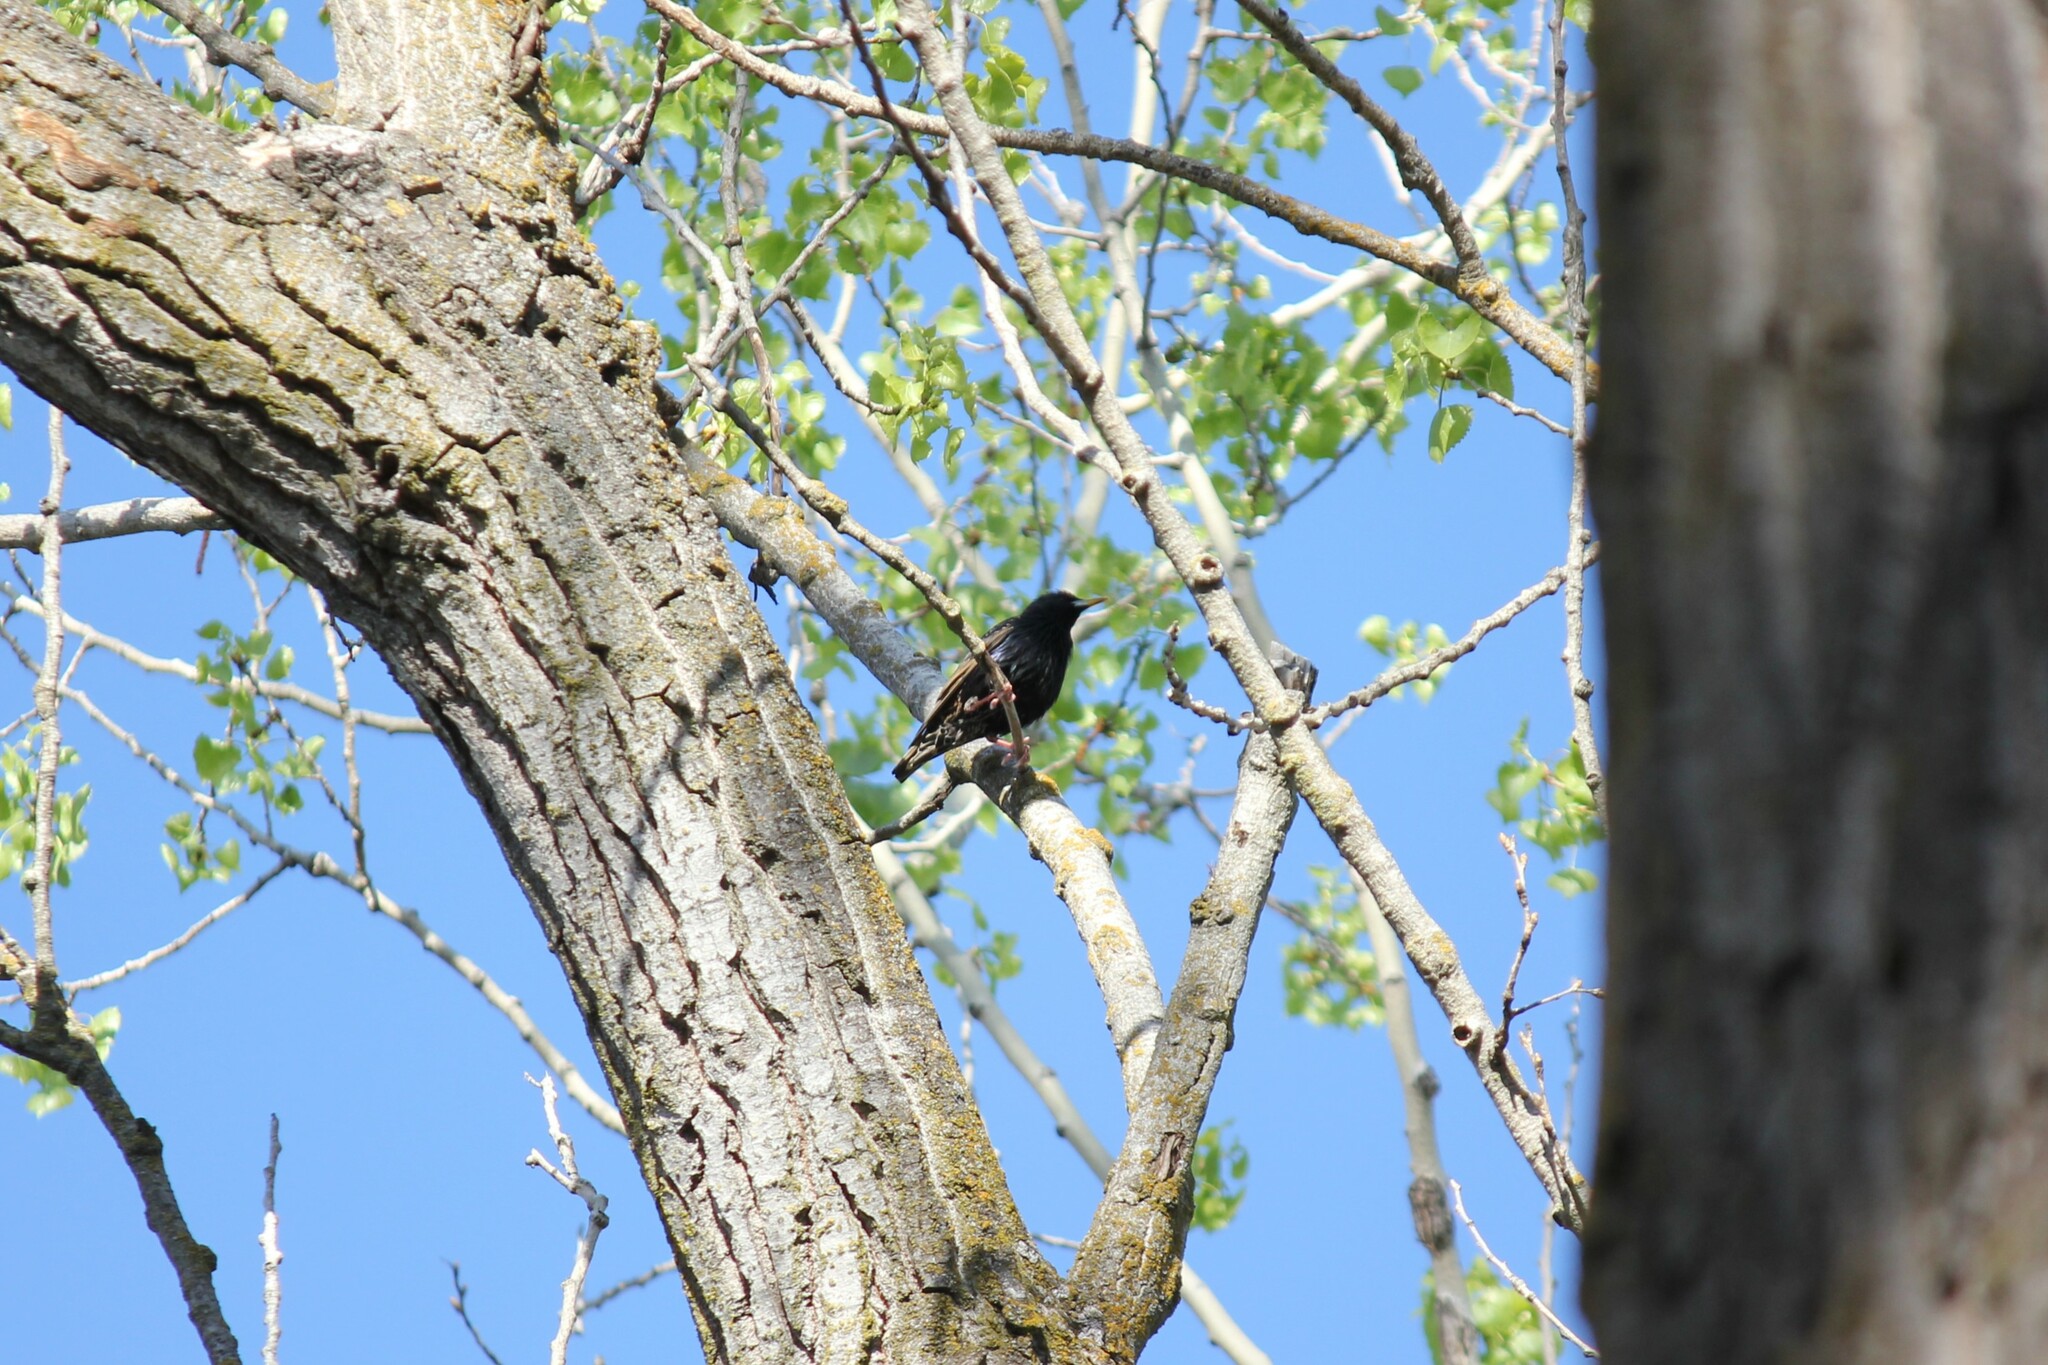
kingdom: Animalia
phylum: Chordata
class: Aves
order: Passeriformes
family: Sturnidae
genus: Sturnus
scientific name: Sturnus vulgaris
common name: Common starling
